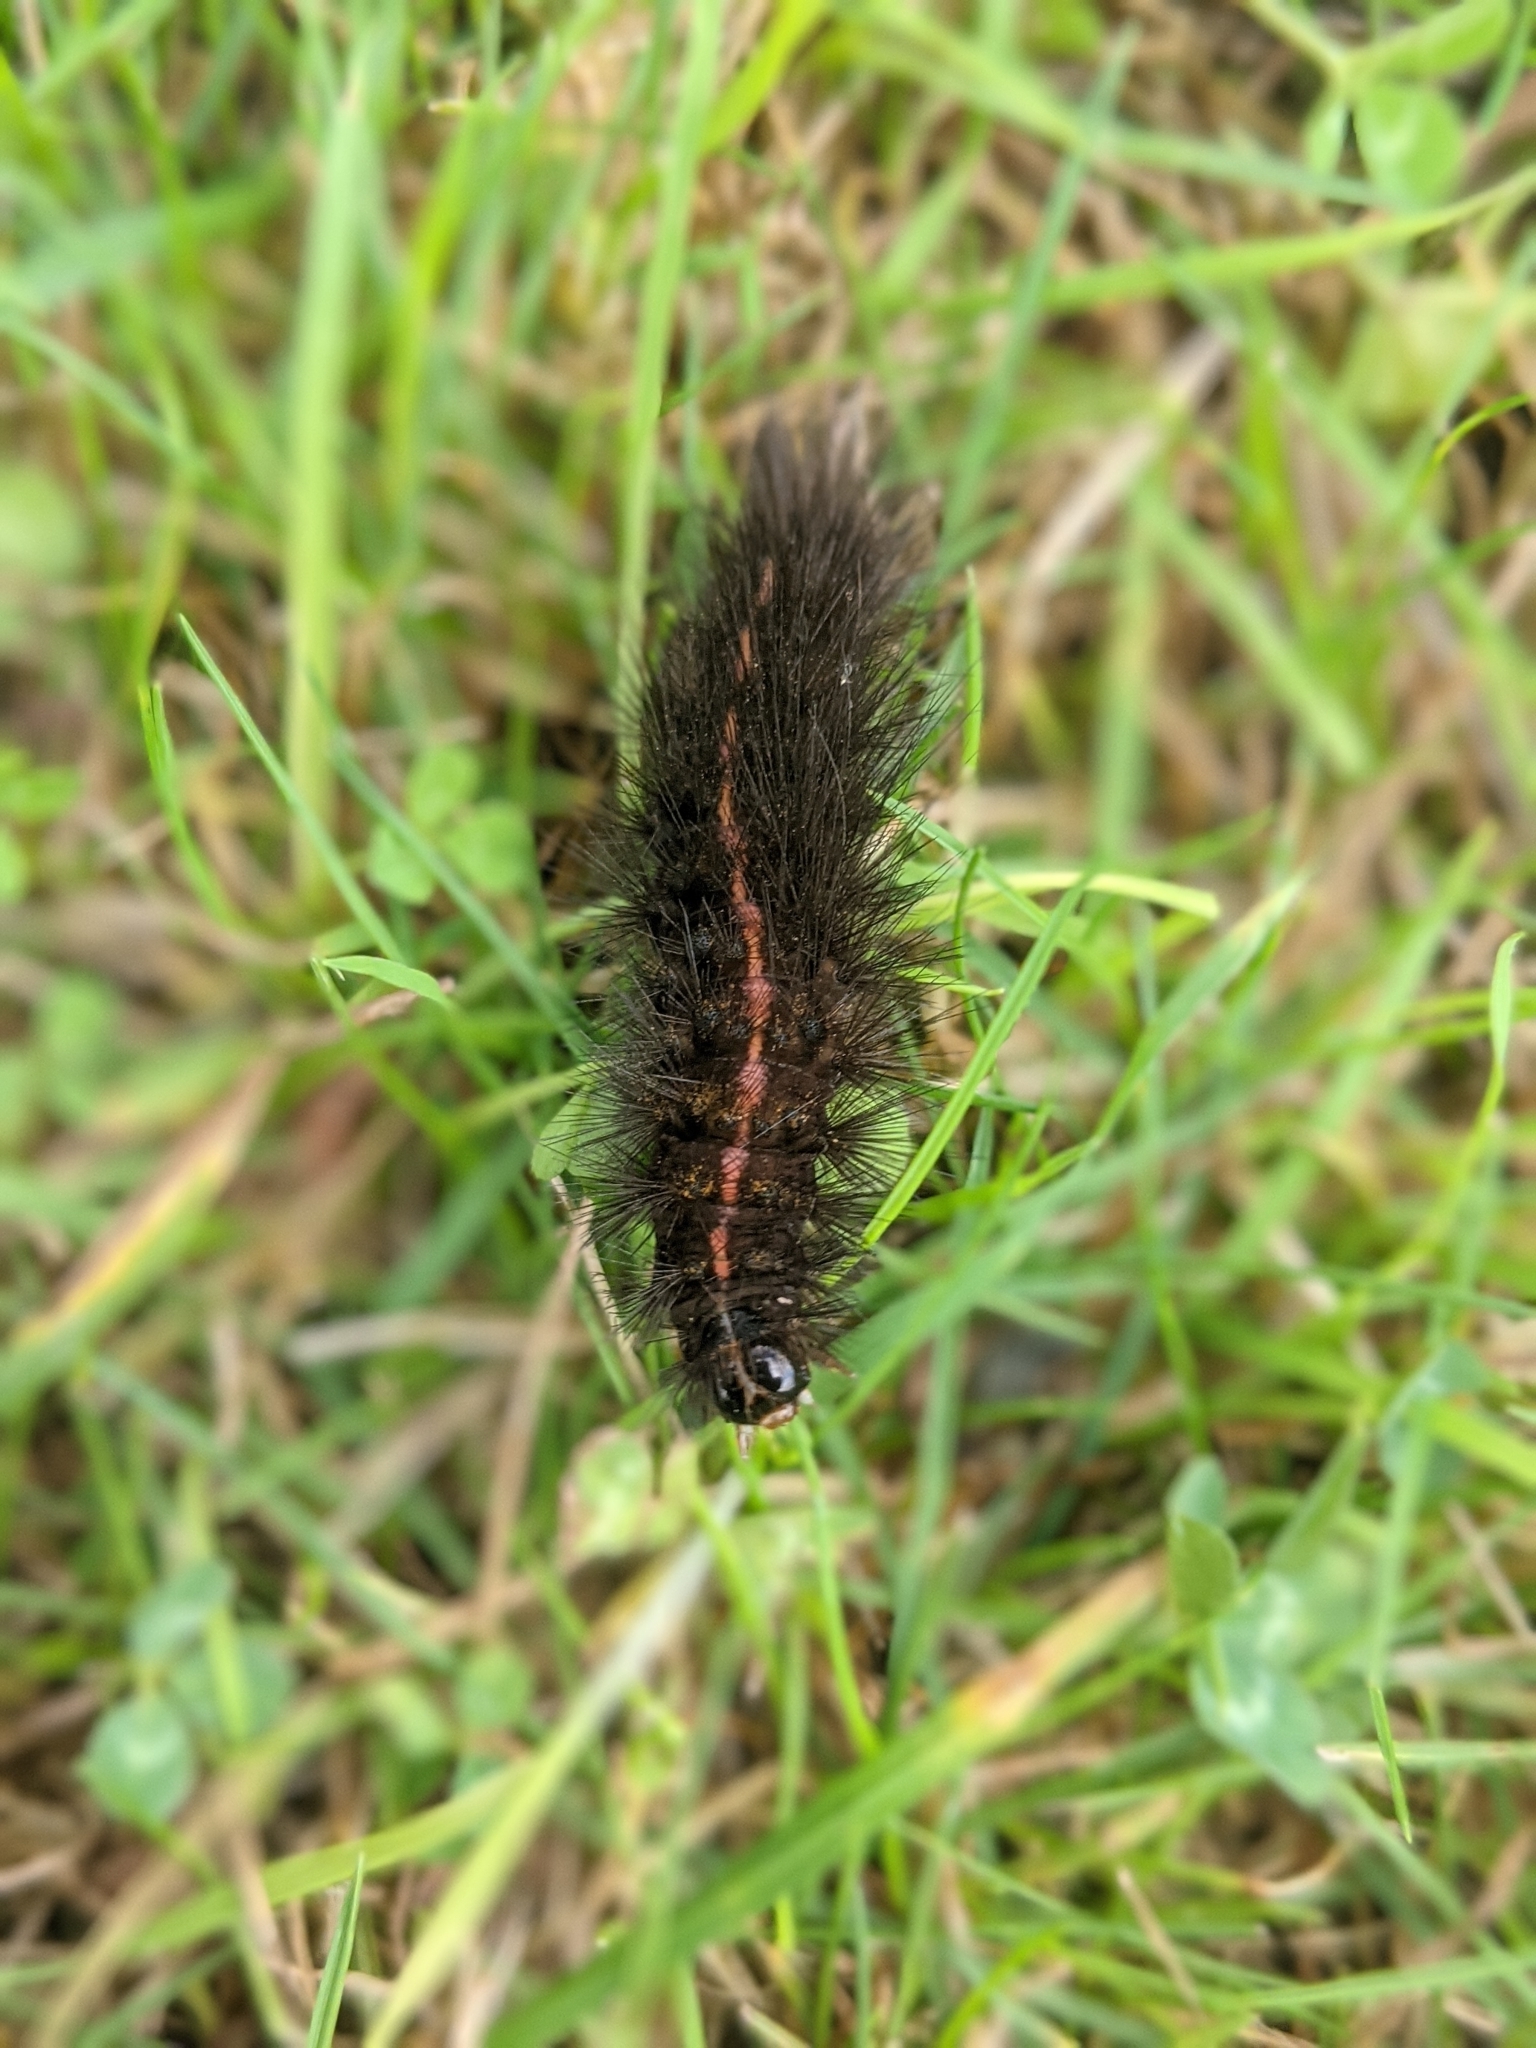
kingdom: Animalia
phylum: Arthropoda
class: Insecta
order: Lepidoptera
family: Erebidae
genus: Spilosoma
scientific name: Spilosoma lubricipeda
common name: White ermine
